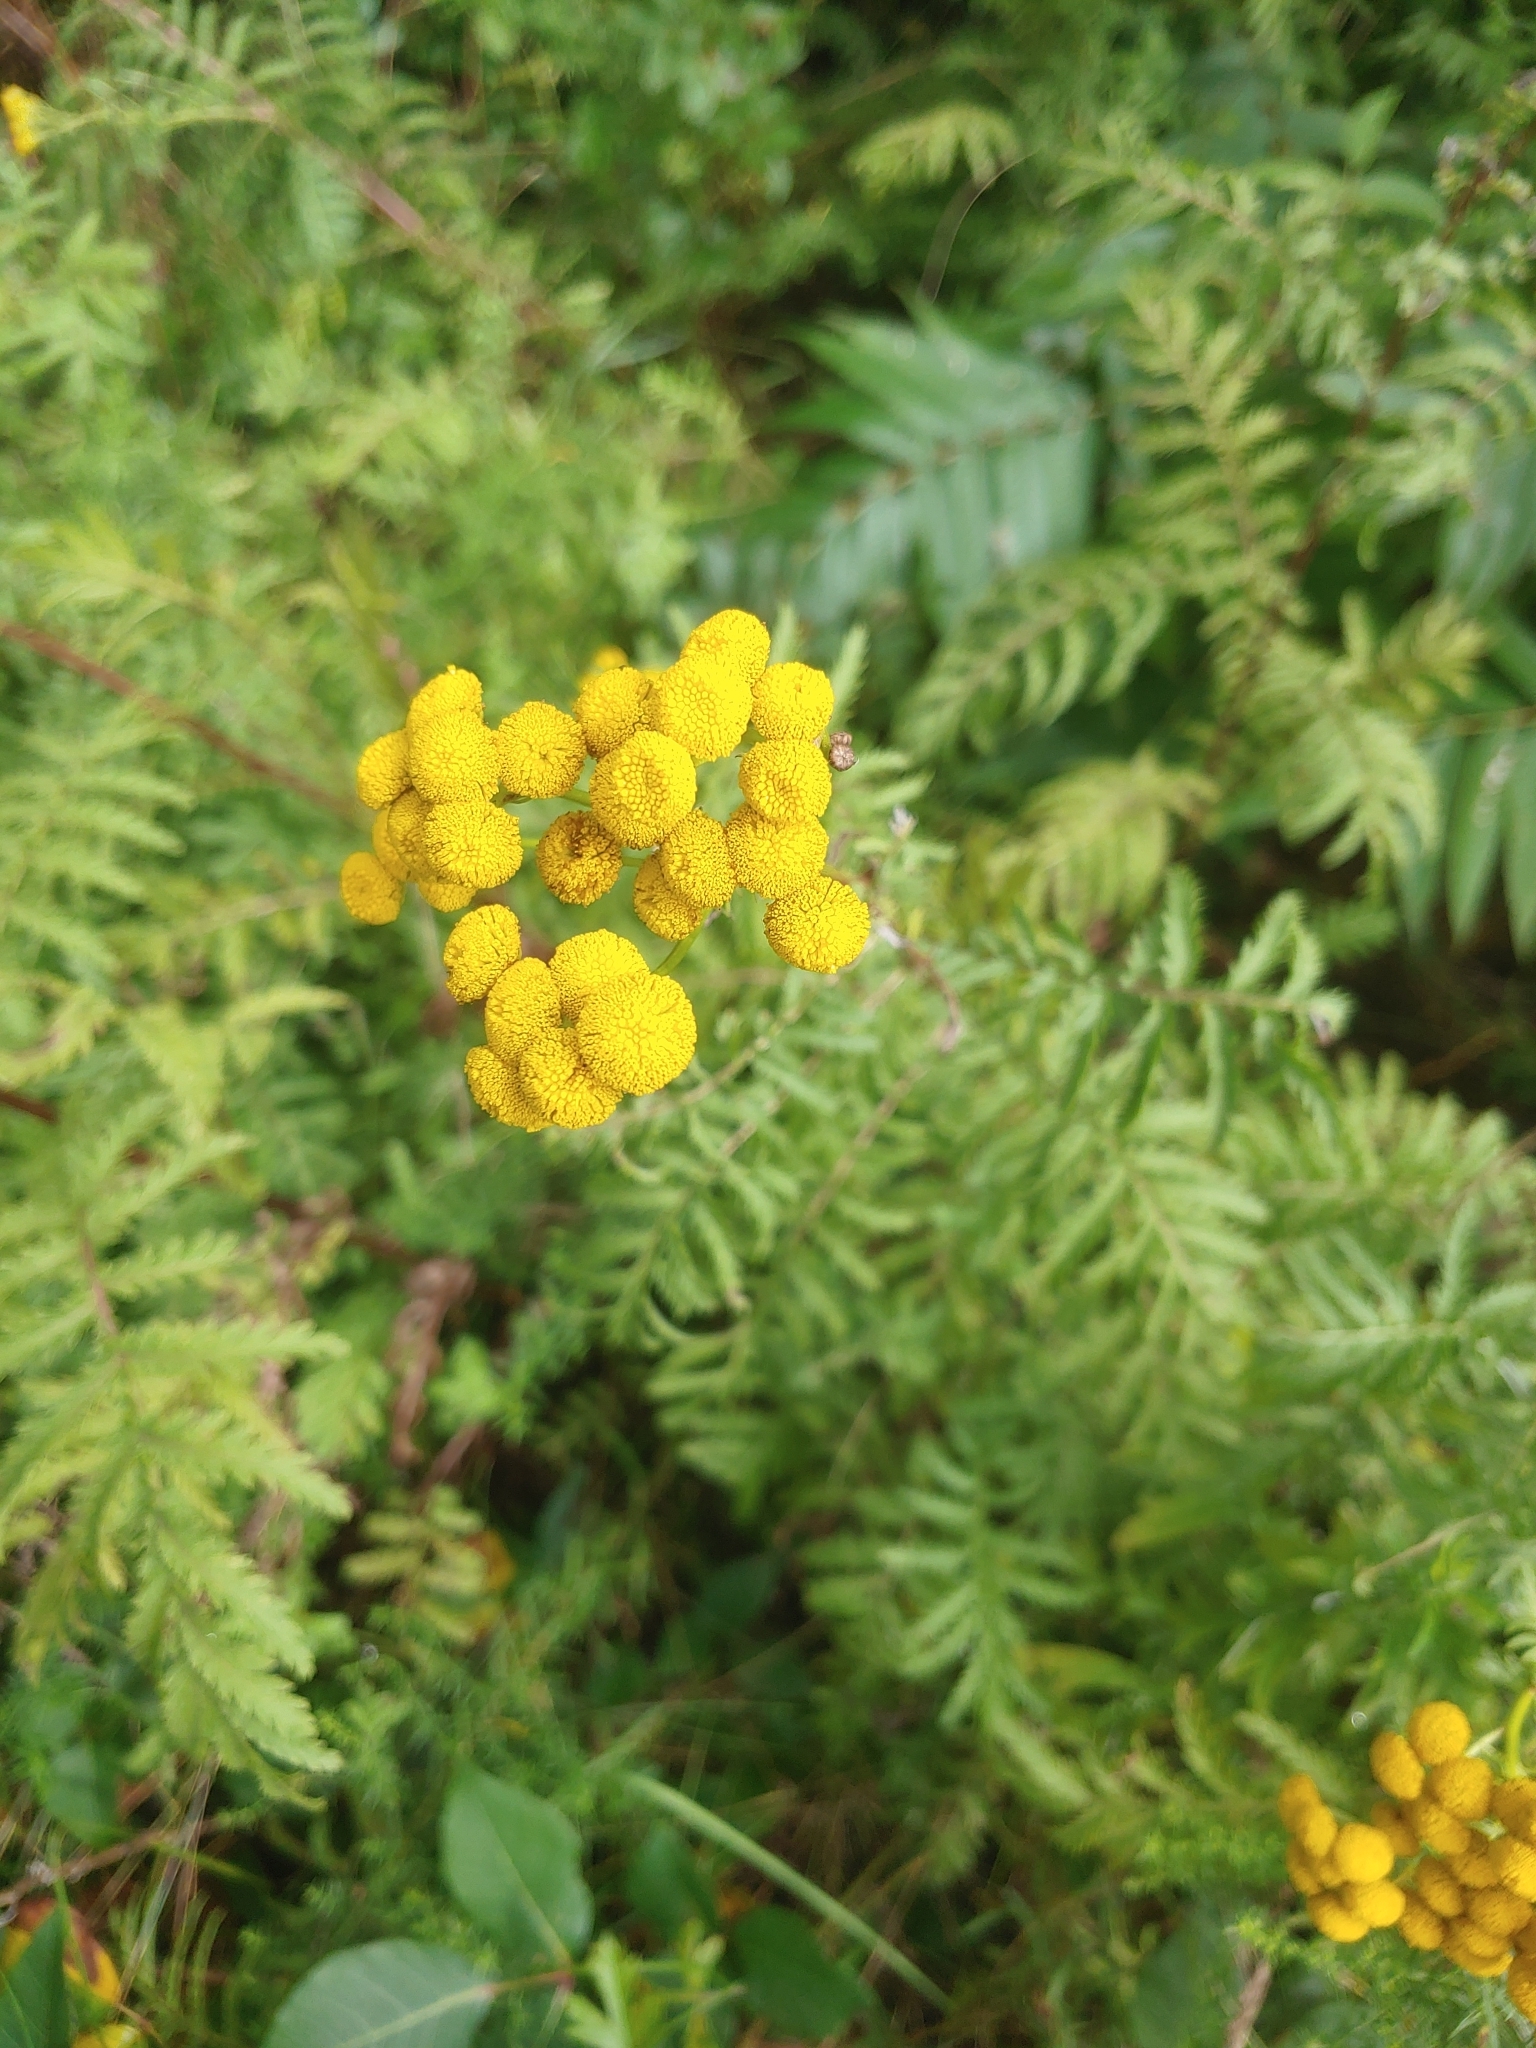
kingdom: Plantae
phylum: Tracheophyta
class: Magnoliopsida
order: Asterales
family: Asteraceae
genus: Tanacetum
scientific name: Tanacetum vulgare
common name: Common tansy
